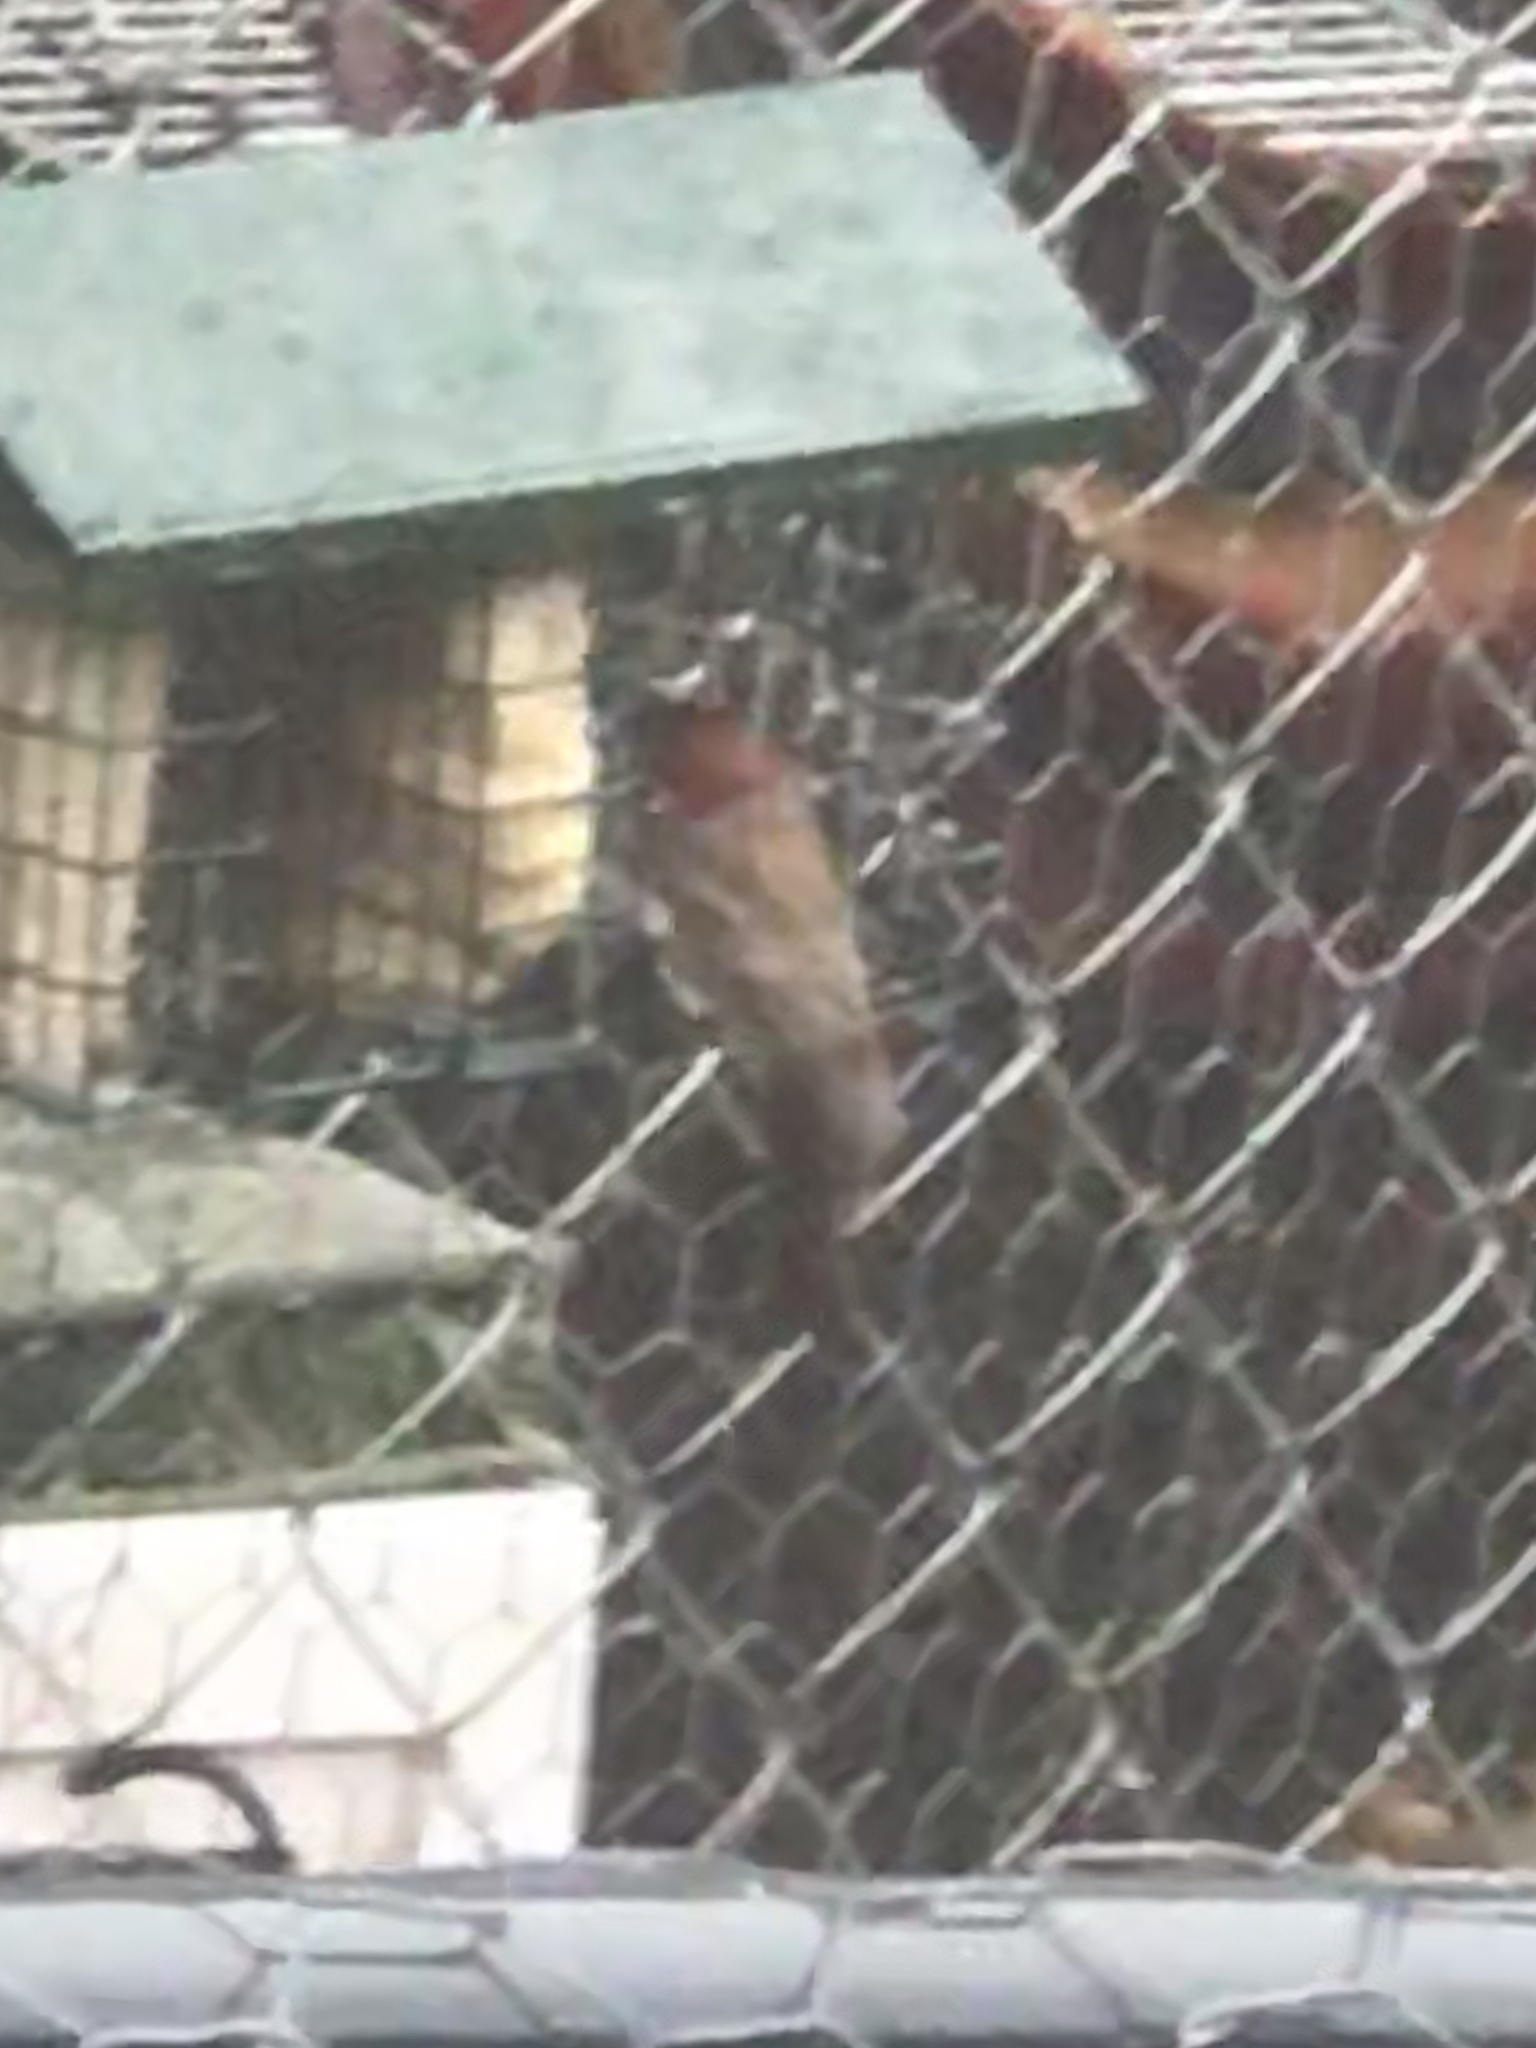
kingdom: Animalia
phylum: Chordata
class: Aves
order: Passeriformes
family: Fringillidae
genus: Haemorhous
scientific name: Haemorhous mexicanus
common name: House finch
